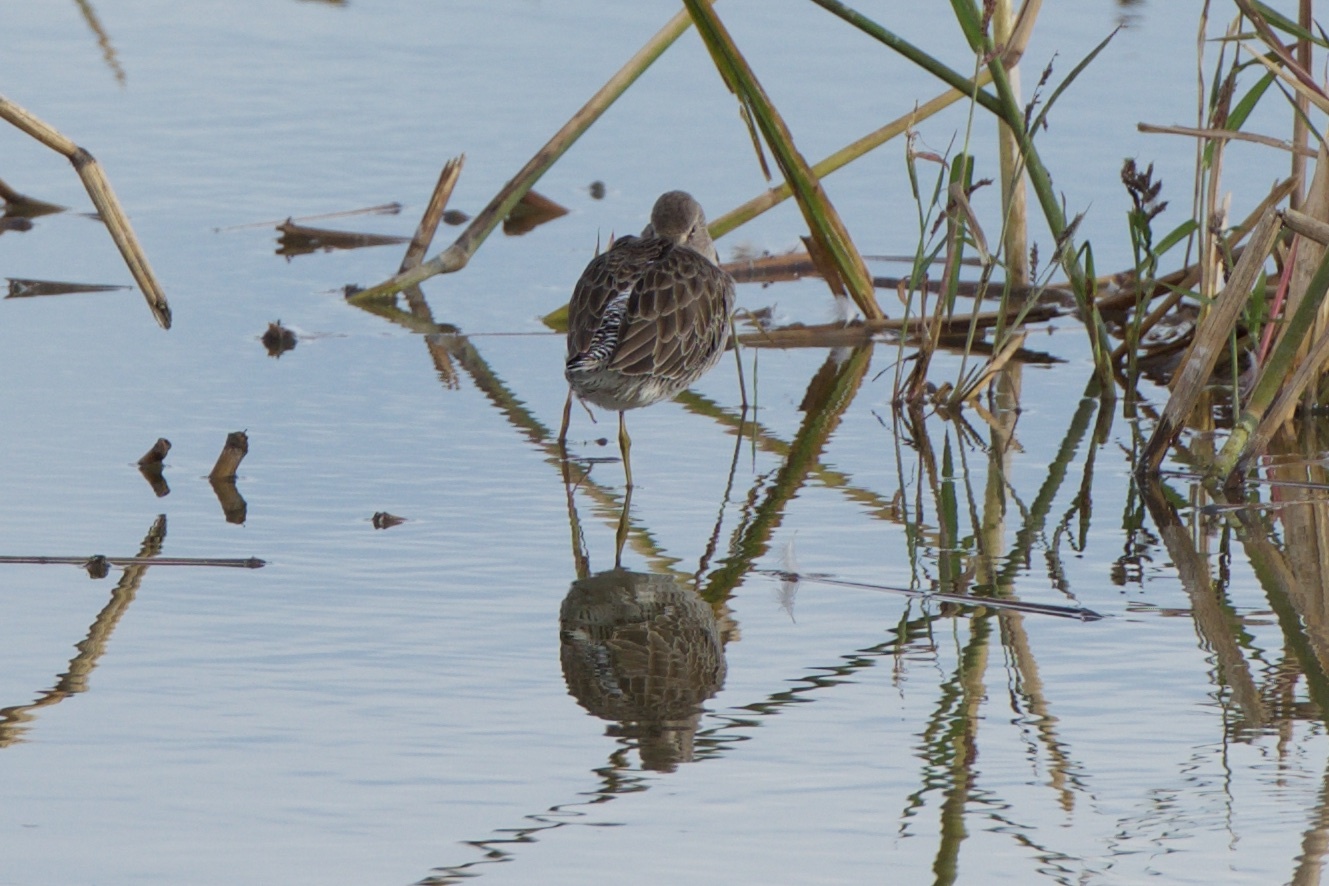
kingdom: Animalia
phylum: Chordata
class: Aves
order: Charadriiformes
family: Scolopacidae
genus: Limnodromus
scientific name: Limnodromus
